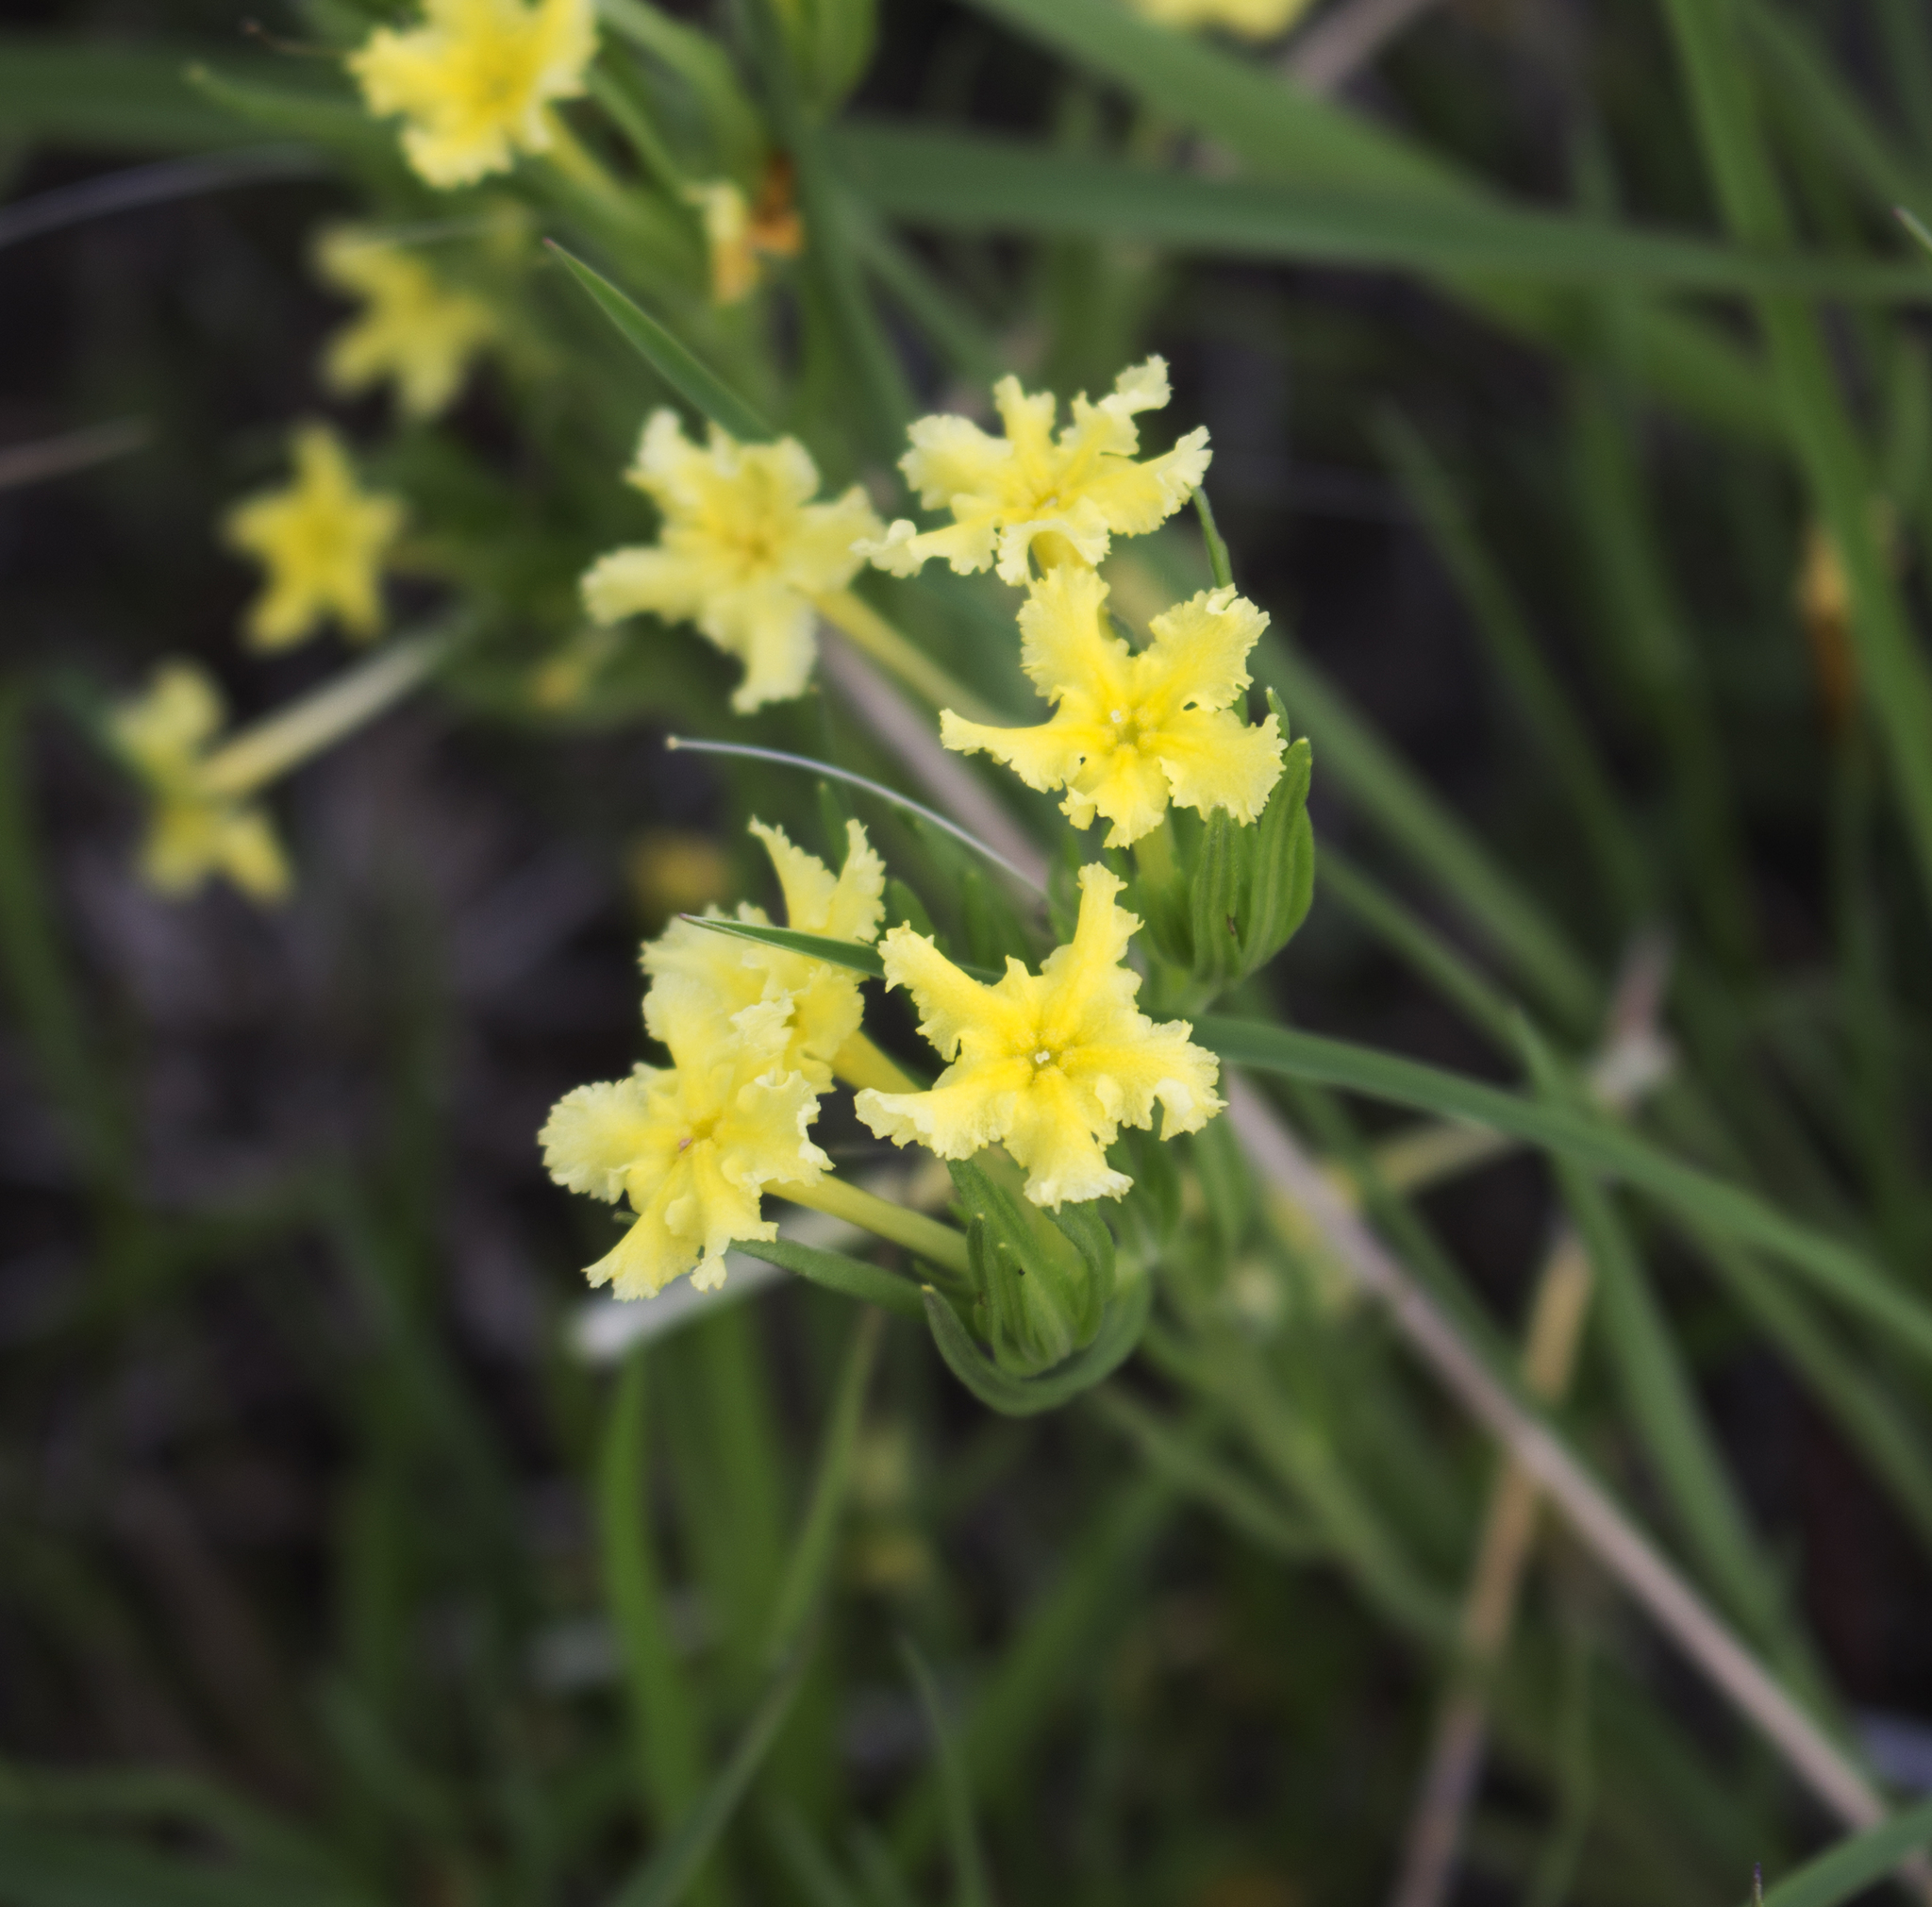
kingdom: Plantae
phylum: Tracheophyta
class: Magnoliopsida
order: Boraginales
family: Boraginaceae
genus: Lithospermum
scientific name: Lithospermum incisum
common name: Fringed gromwell
